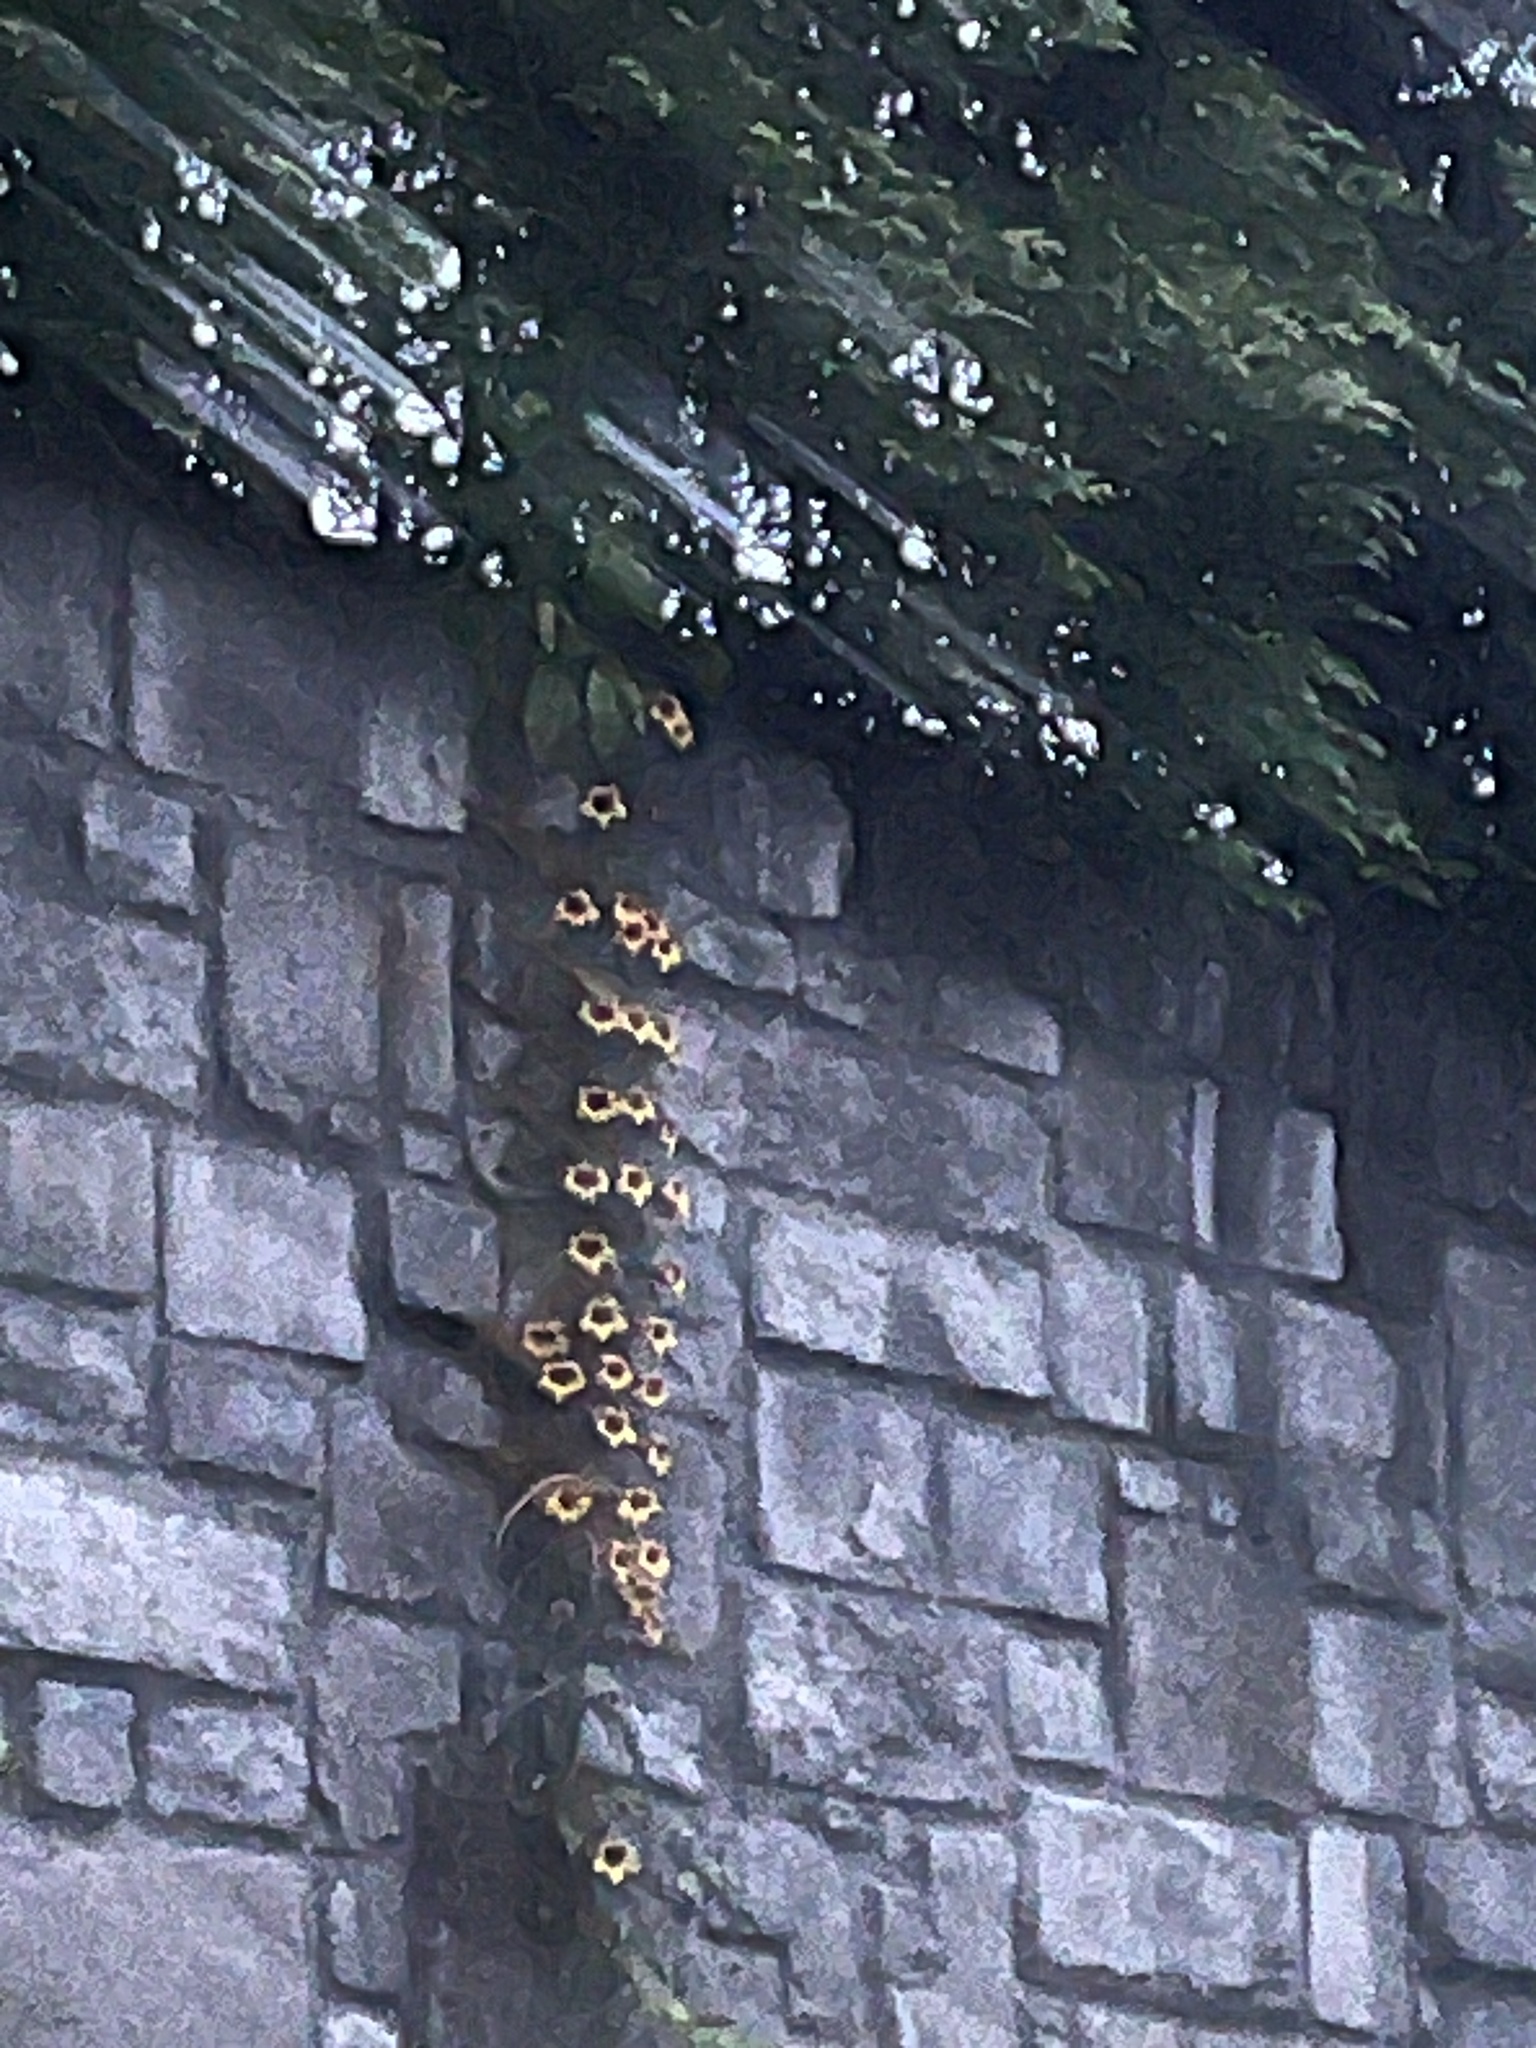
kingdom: Plantae
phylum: Tracheophyta
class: Magnoliopsida
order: Lamiales
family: Bignoniaceae
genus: Bignonia
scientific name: Bignonia capreolata
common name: Crossvine
